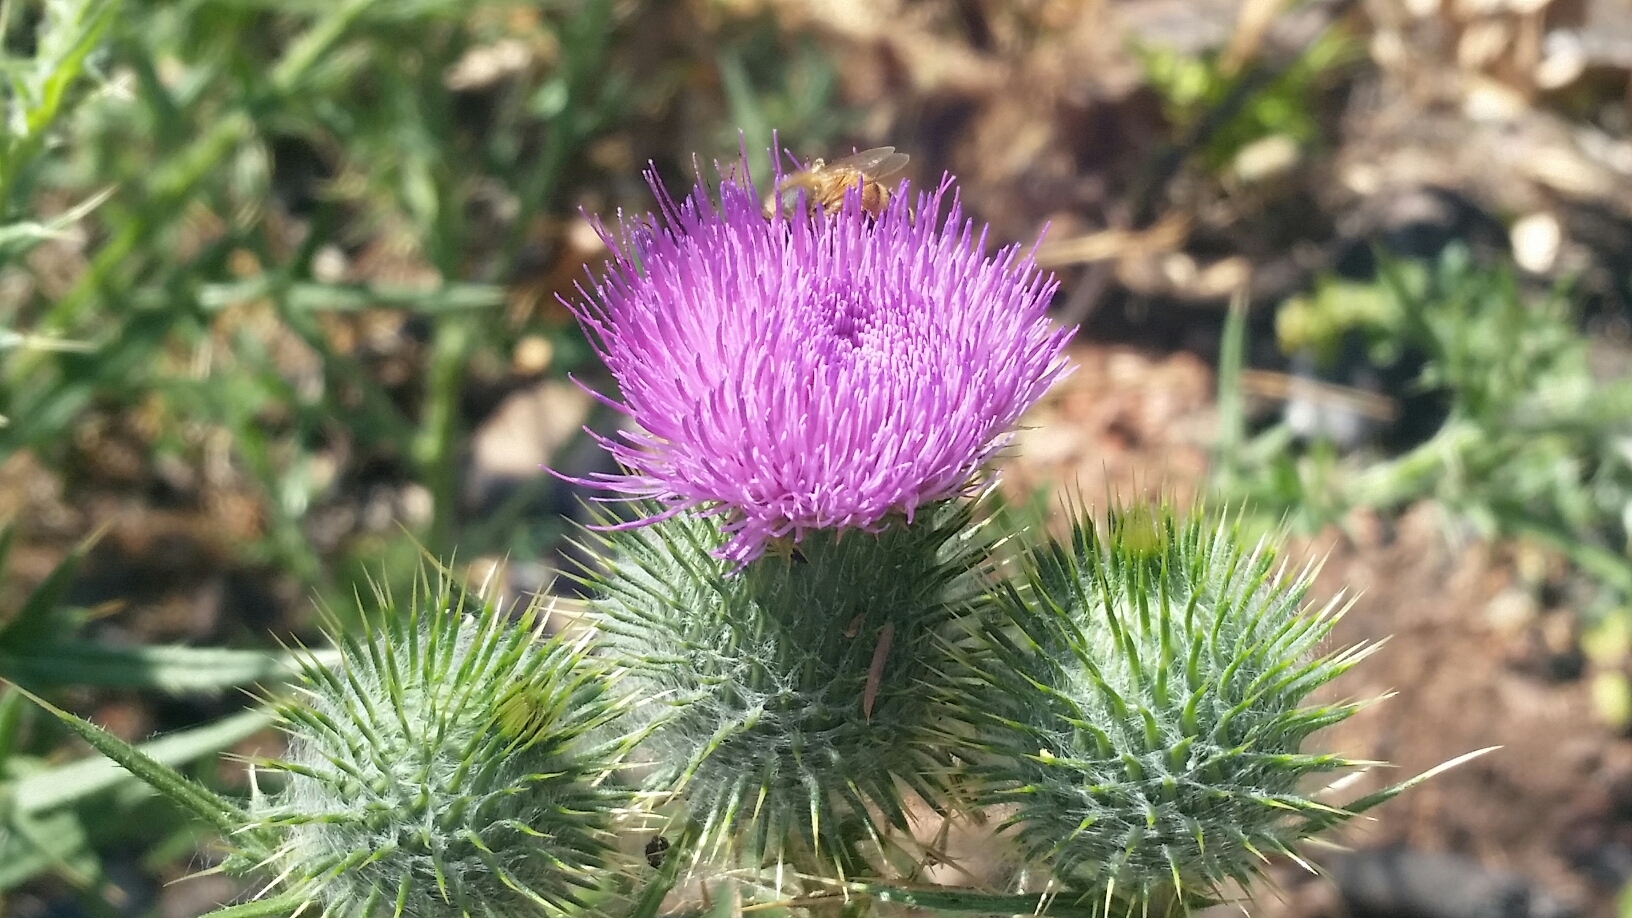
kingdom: Plantae
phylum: Tracheophyta
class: Magnoliopsida
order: Asterales
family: Asteraceae
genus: Cirsium
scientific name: Cirsium vulgare
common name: Bull thistle
